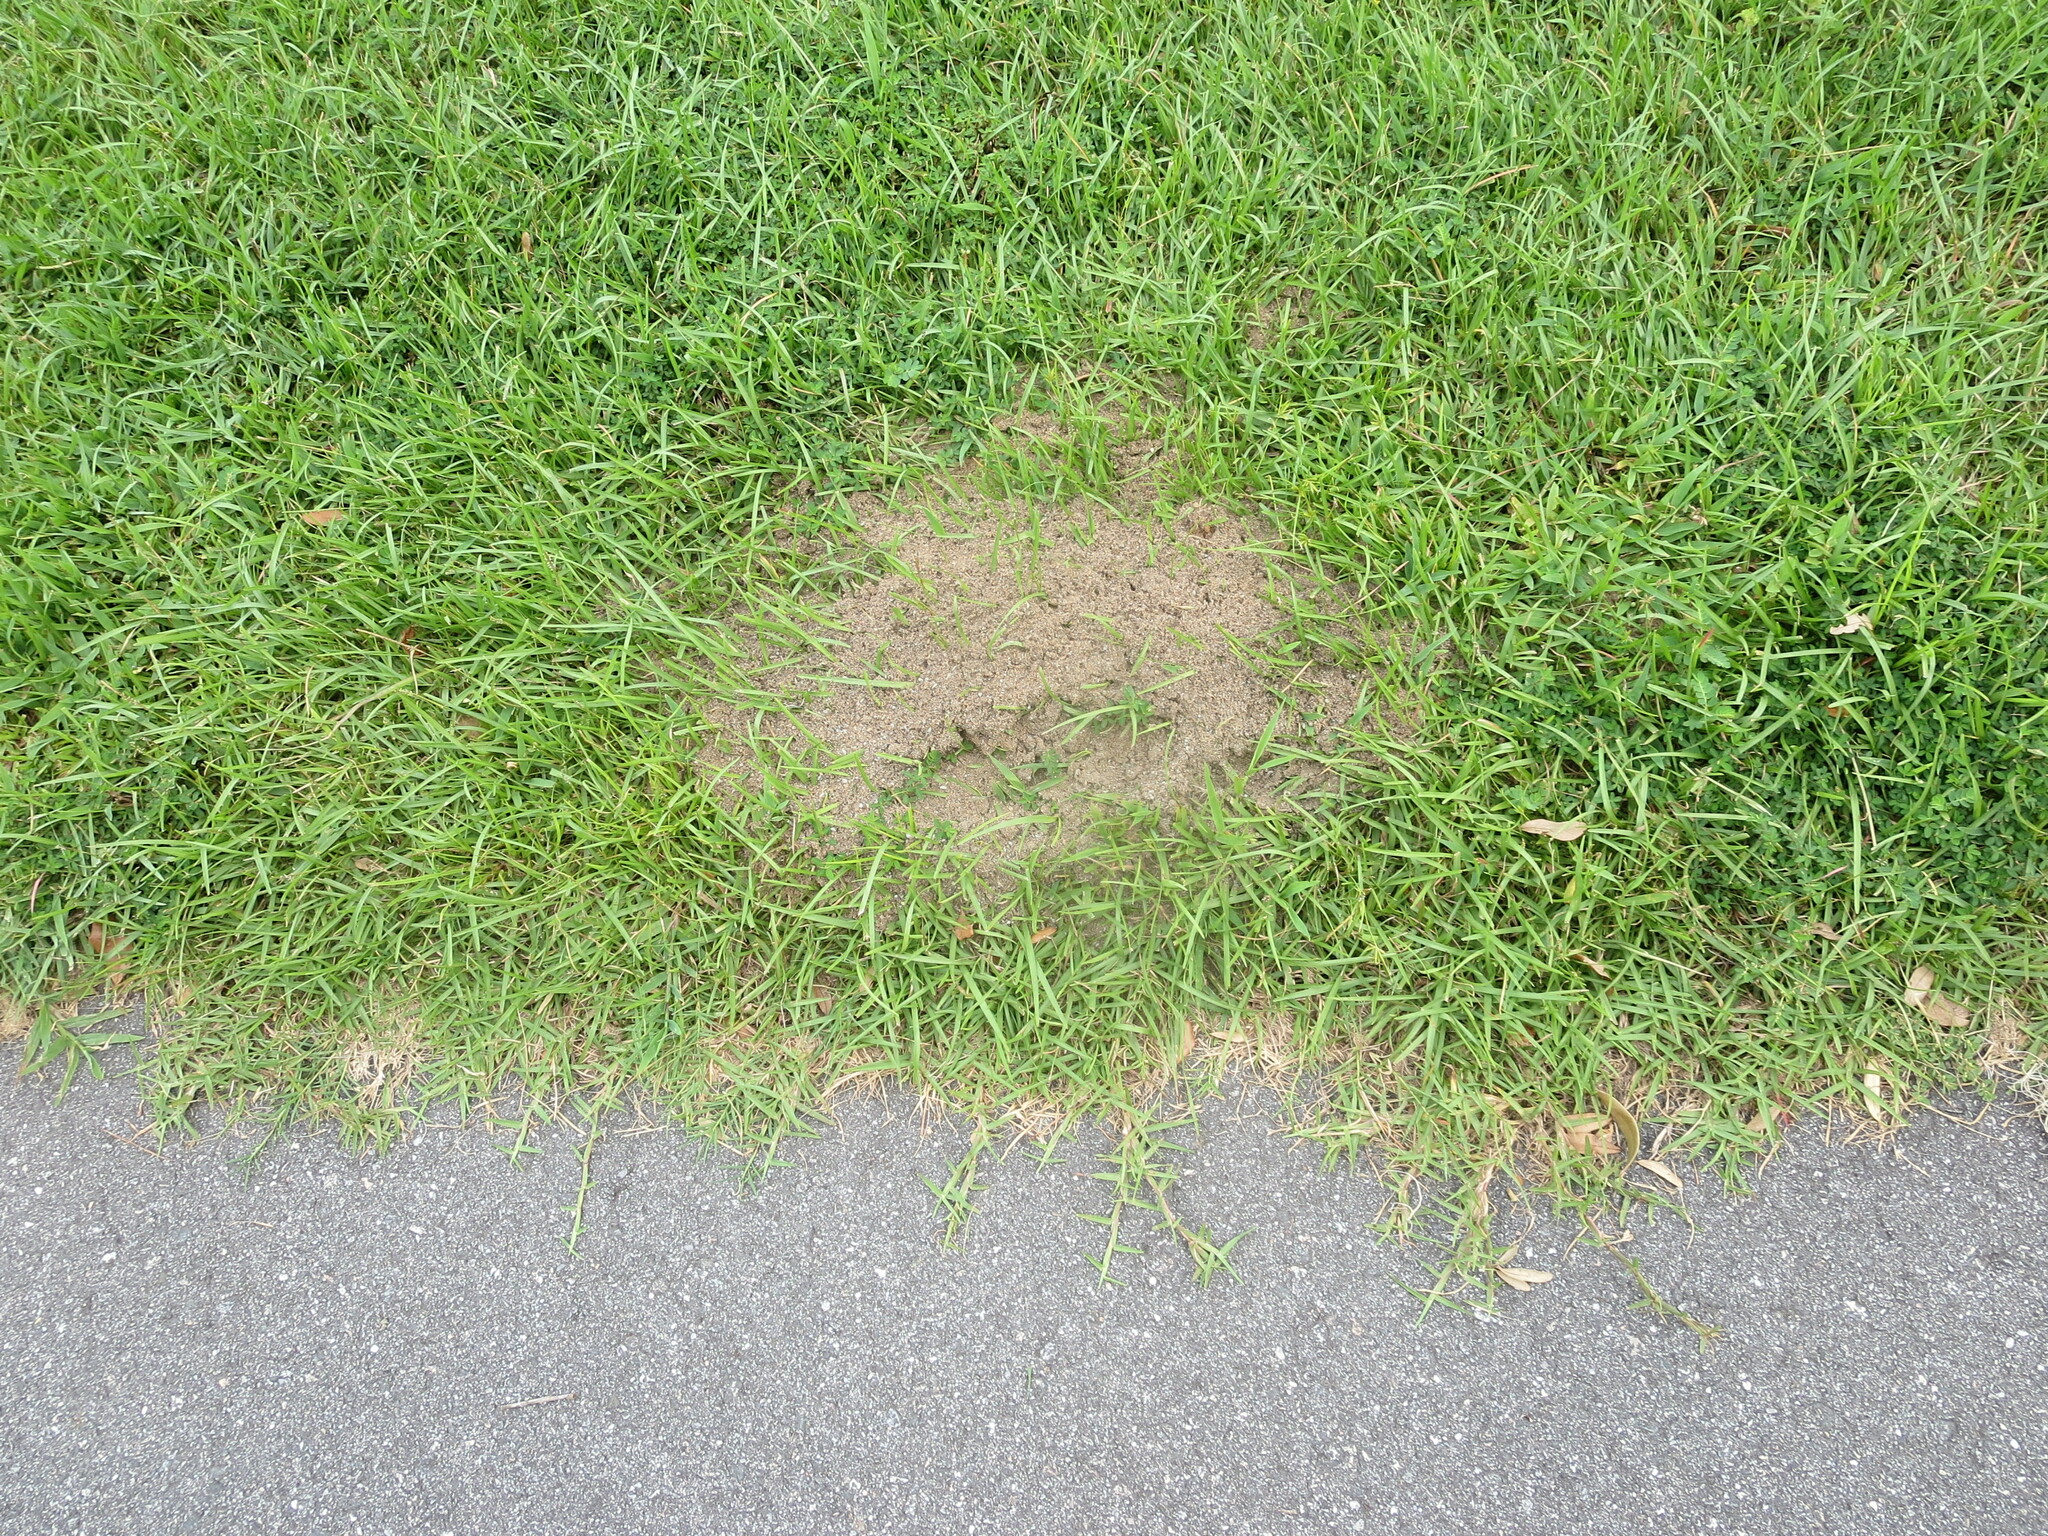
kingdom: Animalia
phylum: Arthropoda
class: Insecta
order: Hymenoptera
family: Formicidae
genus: Solenopsis
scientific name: Solenopsis invicta
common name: Red imported fire ant
